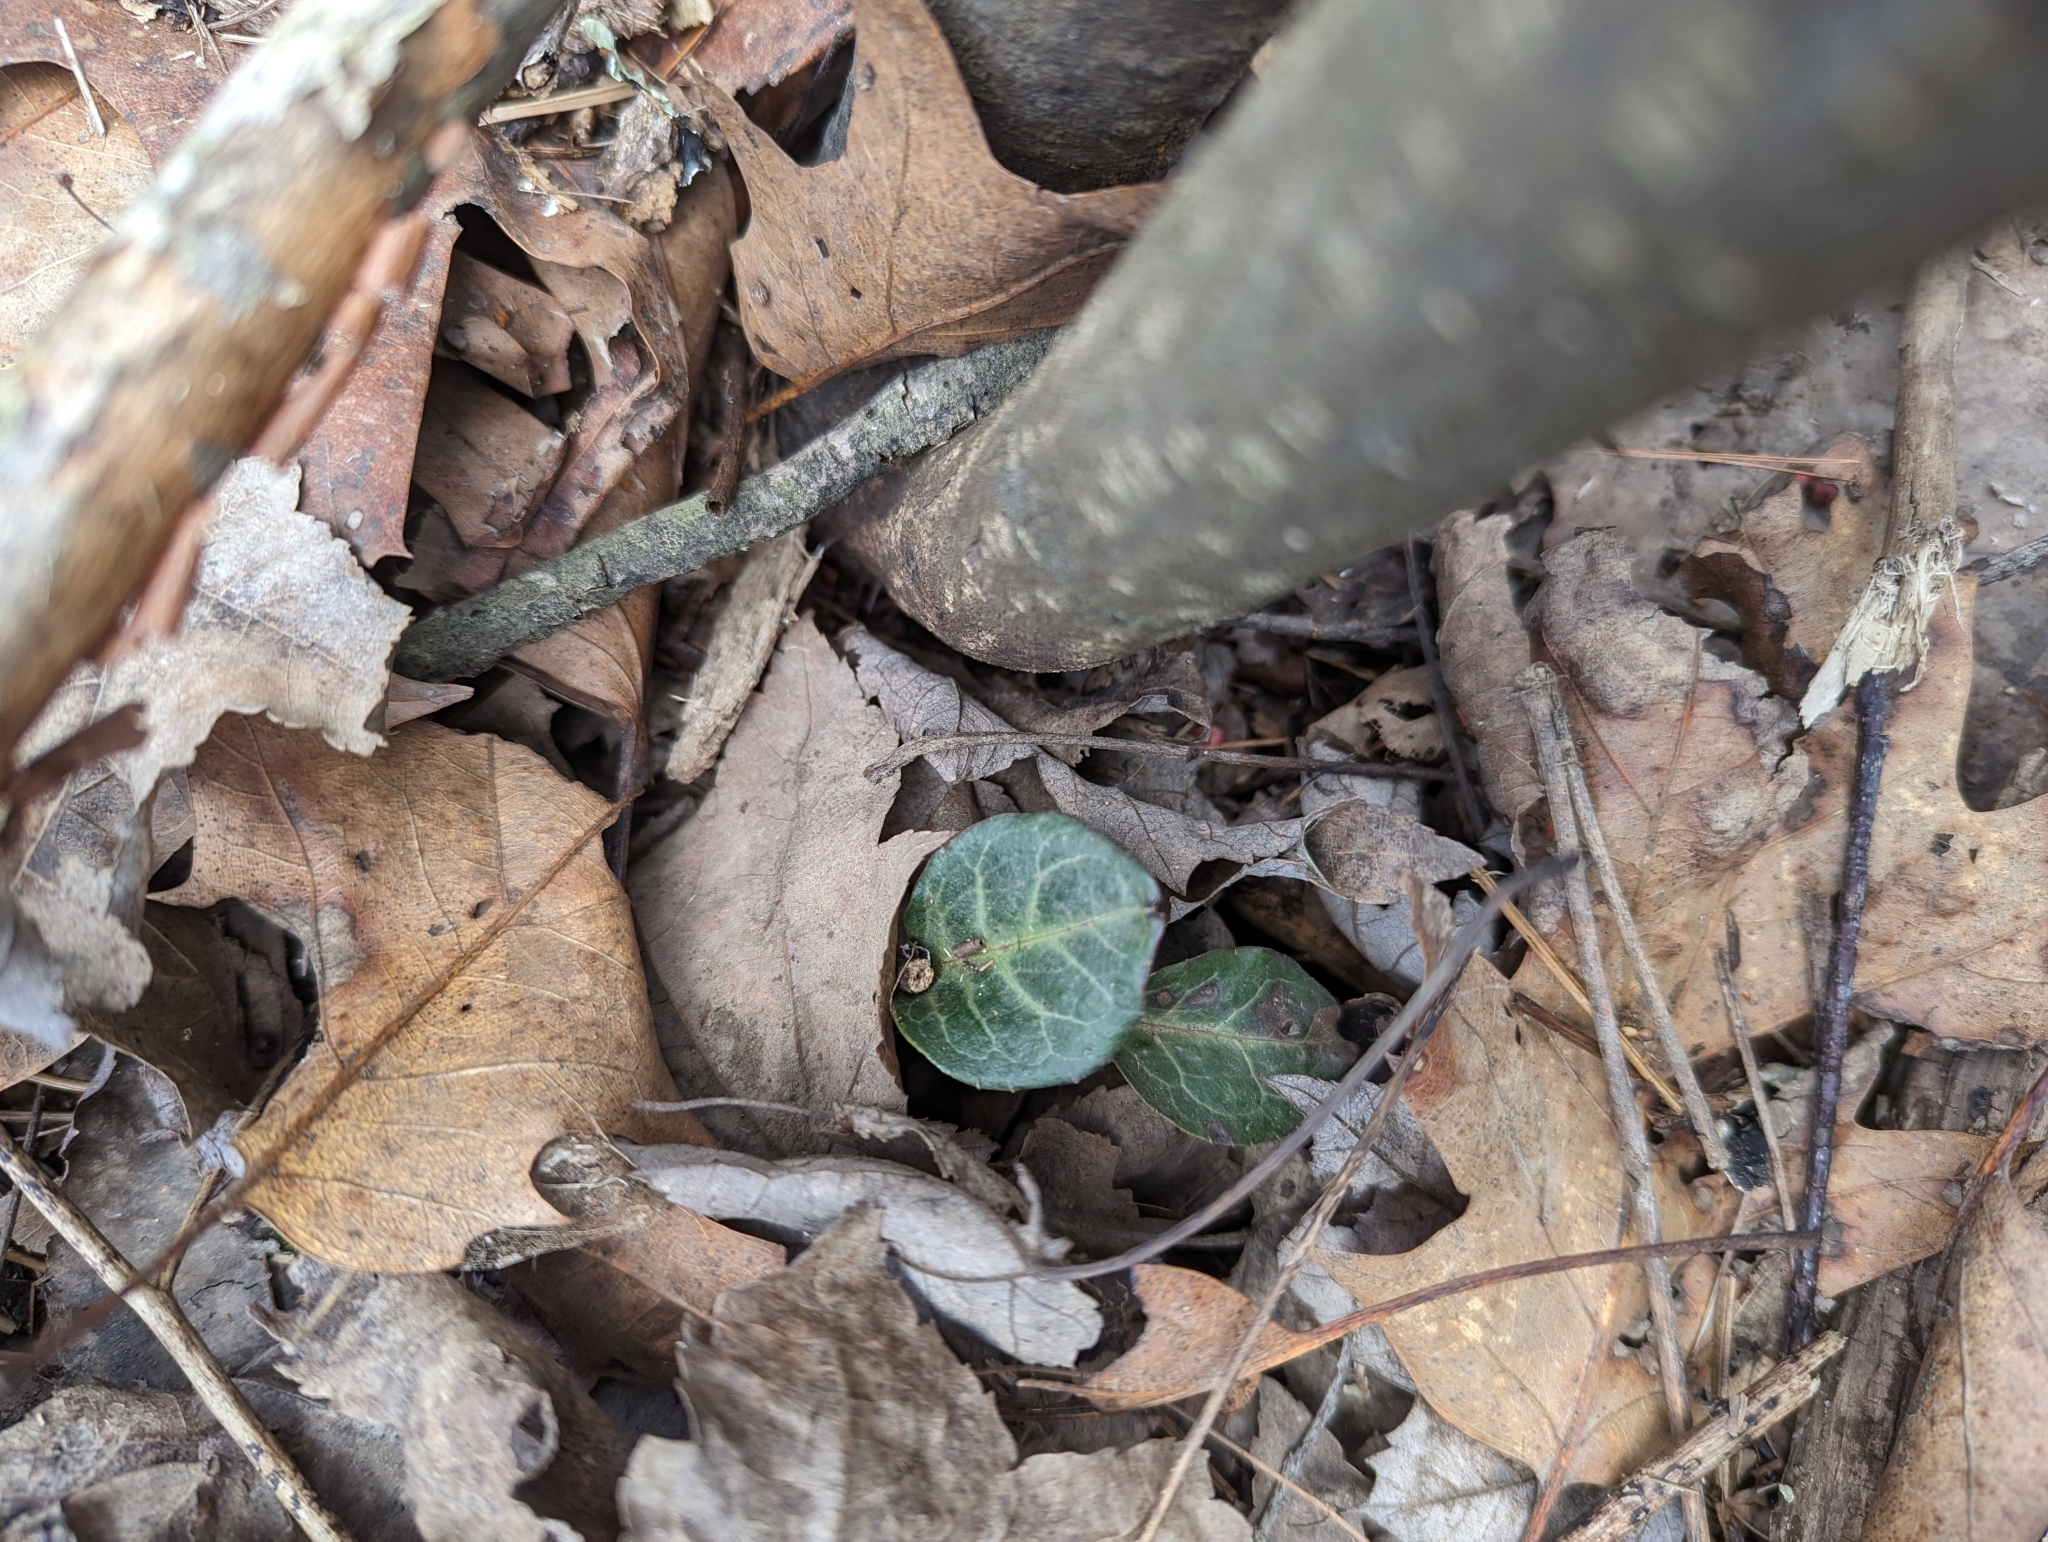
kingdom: Plantae
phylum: Tracheophyta
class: Magnoliopsida
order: Ericales
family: Ericaceae
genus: Pyrola
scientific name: Pyrola americana
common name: American wintergreen
